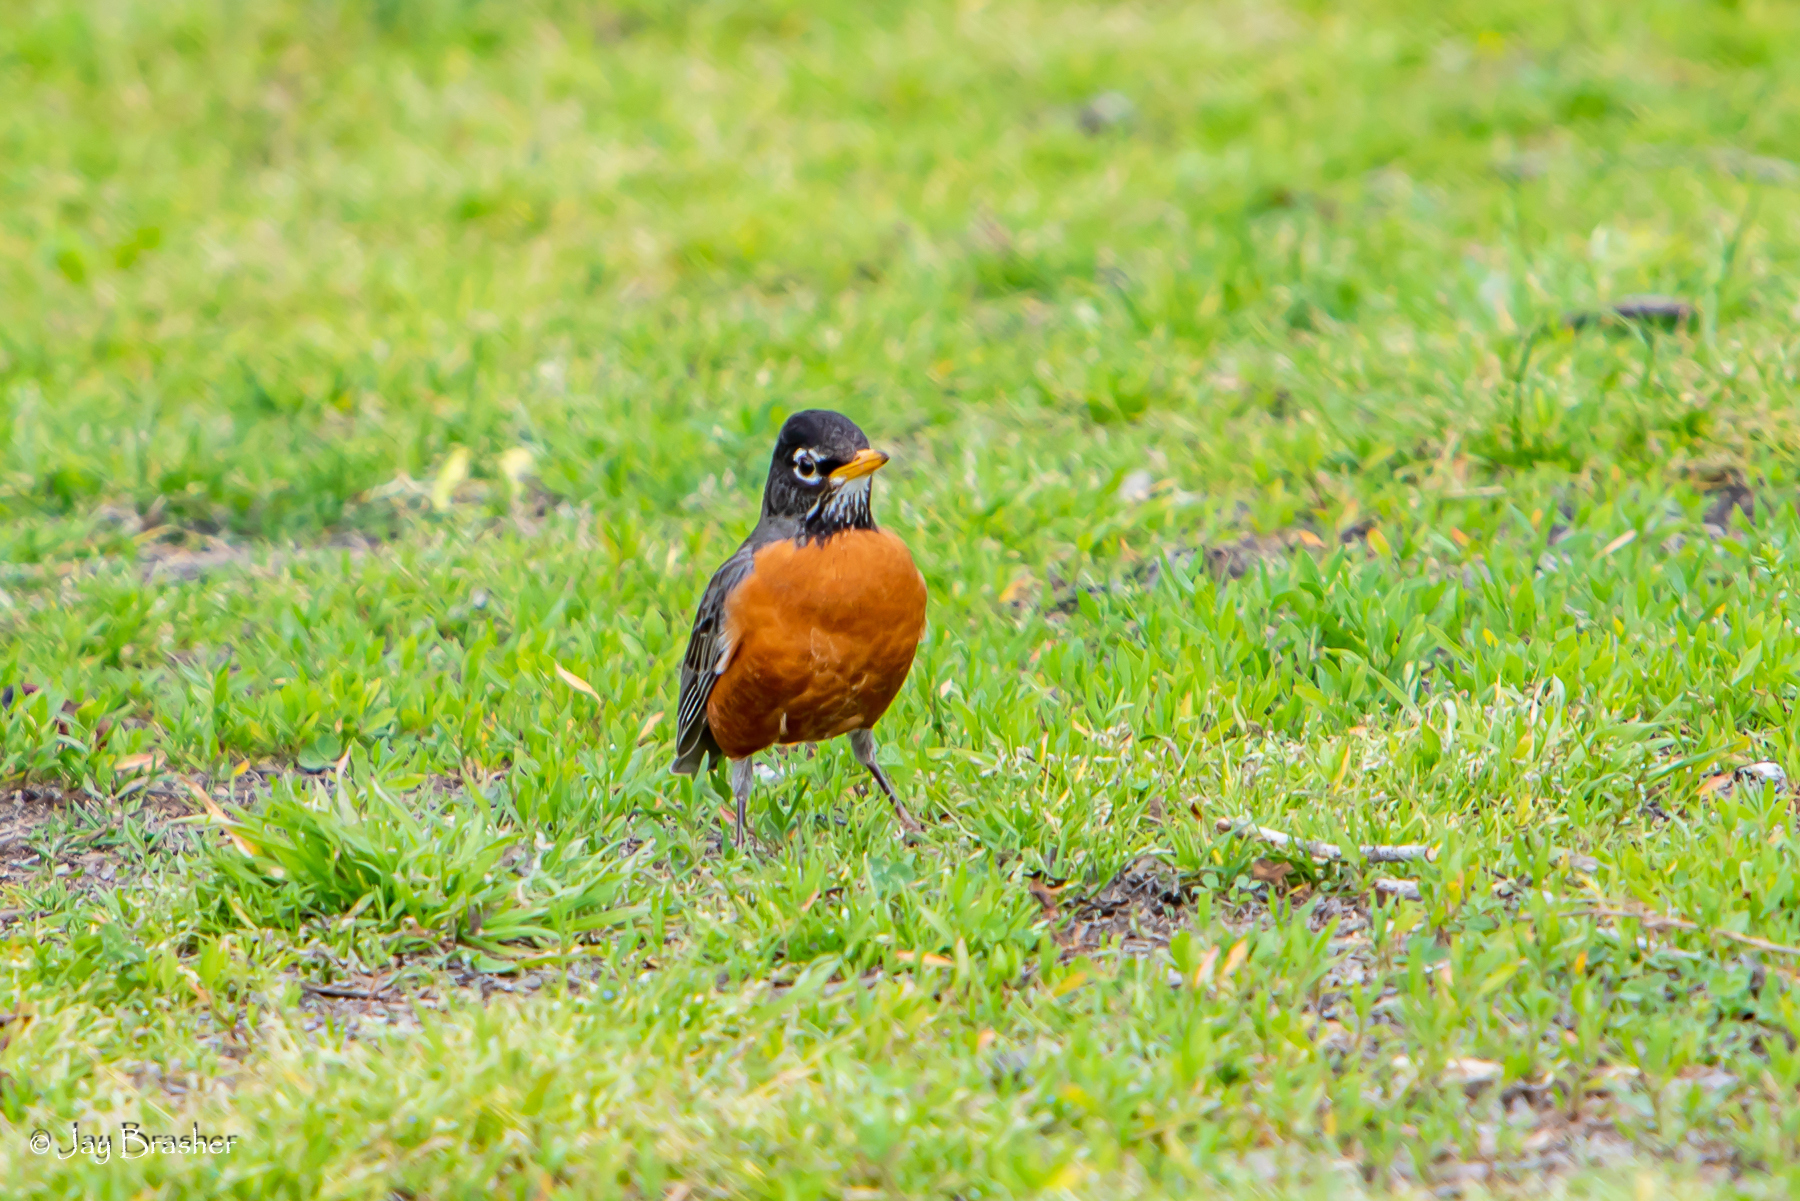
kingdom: Animalia
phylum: Chordata
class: Aves
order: Passeriformes
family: Turdidae
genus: Turdus
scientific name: Turdus migratorius
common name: American robin
